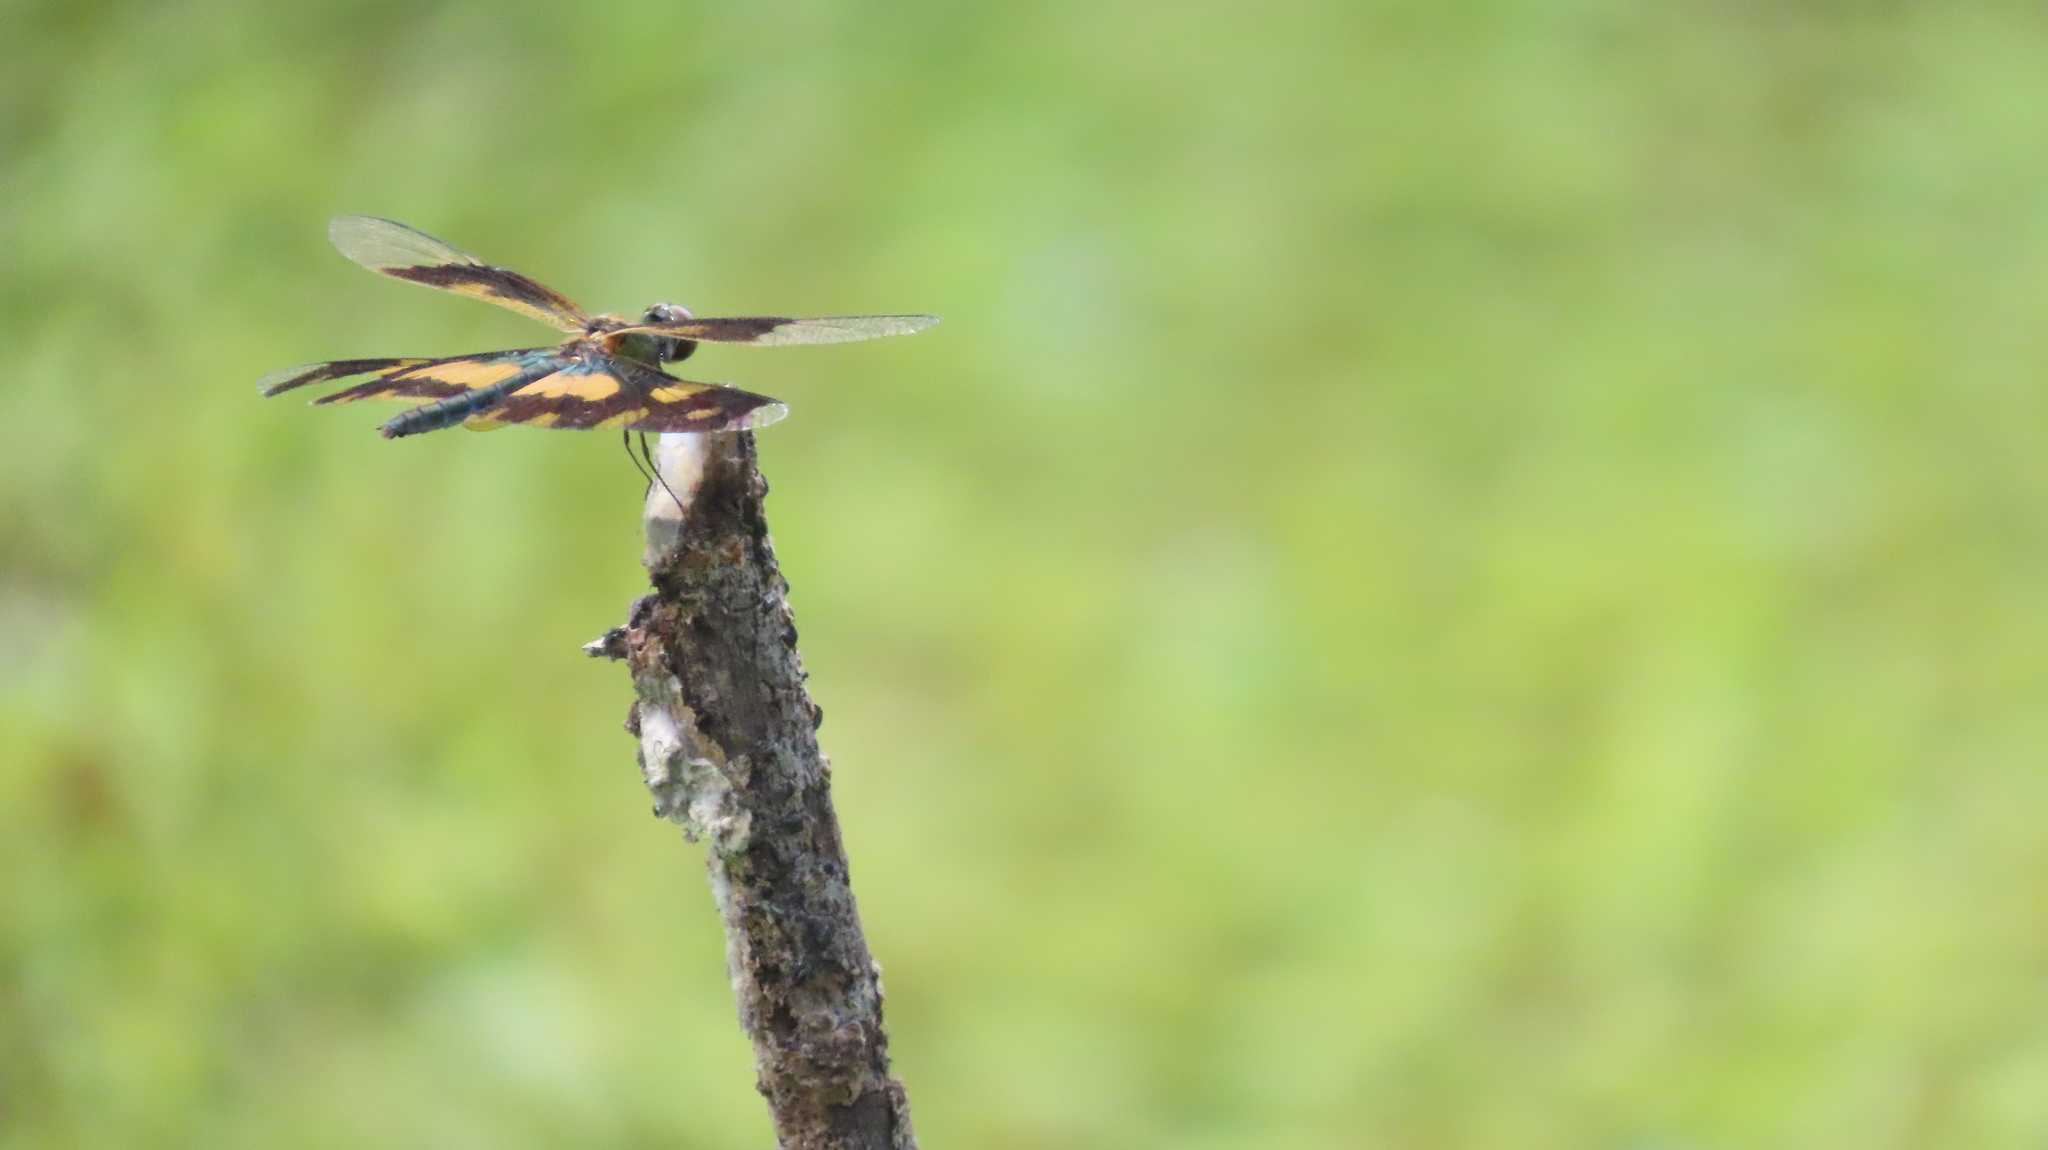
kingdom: Animalia
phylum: Arthropoda
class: Insecta
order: Odonata
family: Libellulidae
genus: Rhyothemis
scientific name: Rhyothemis variegata
